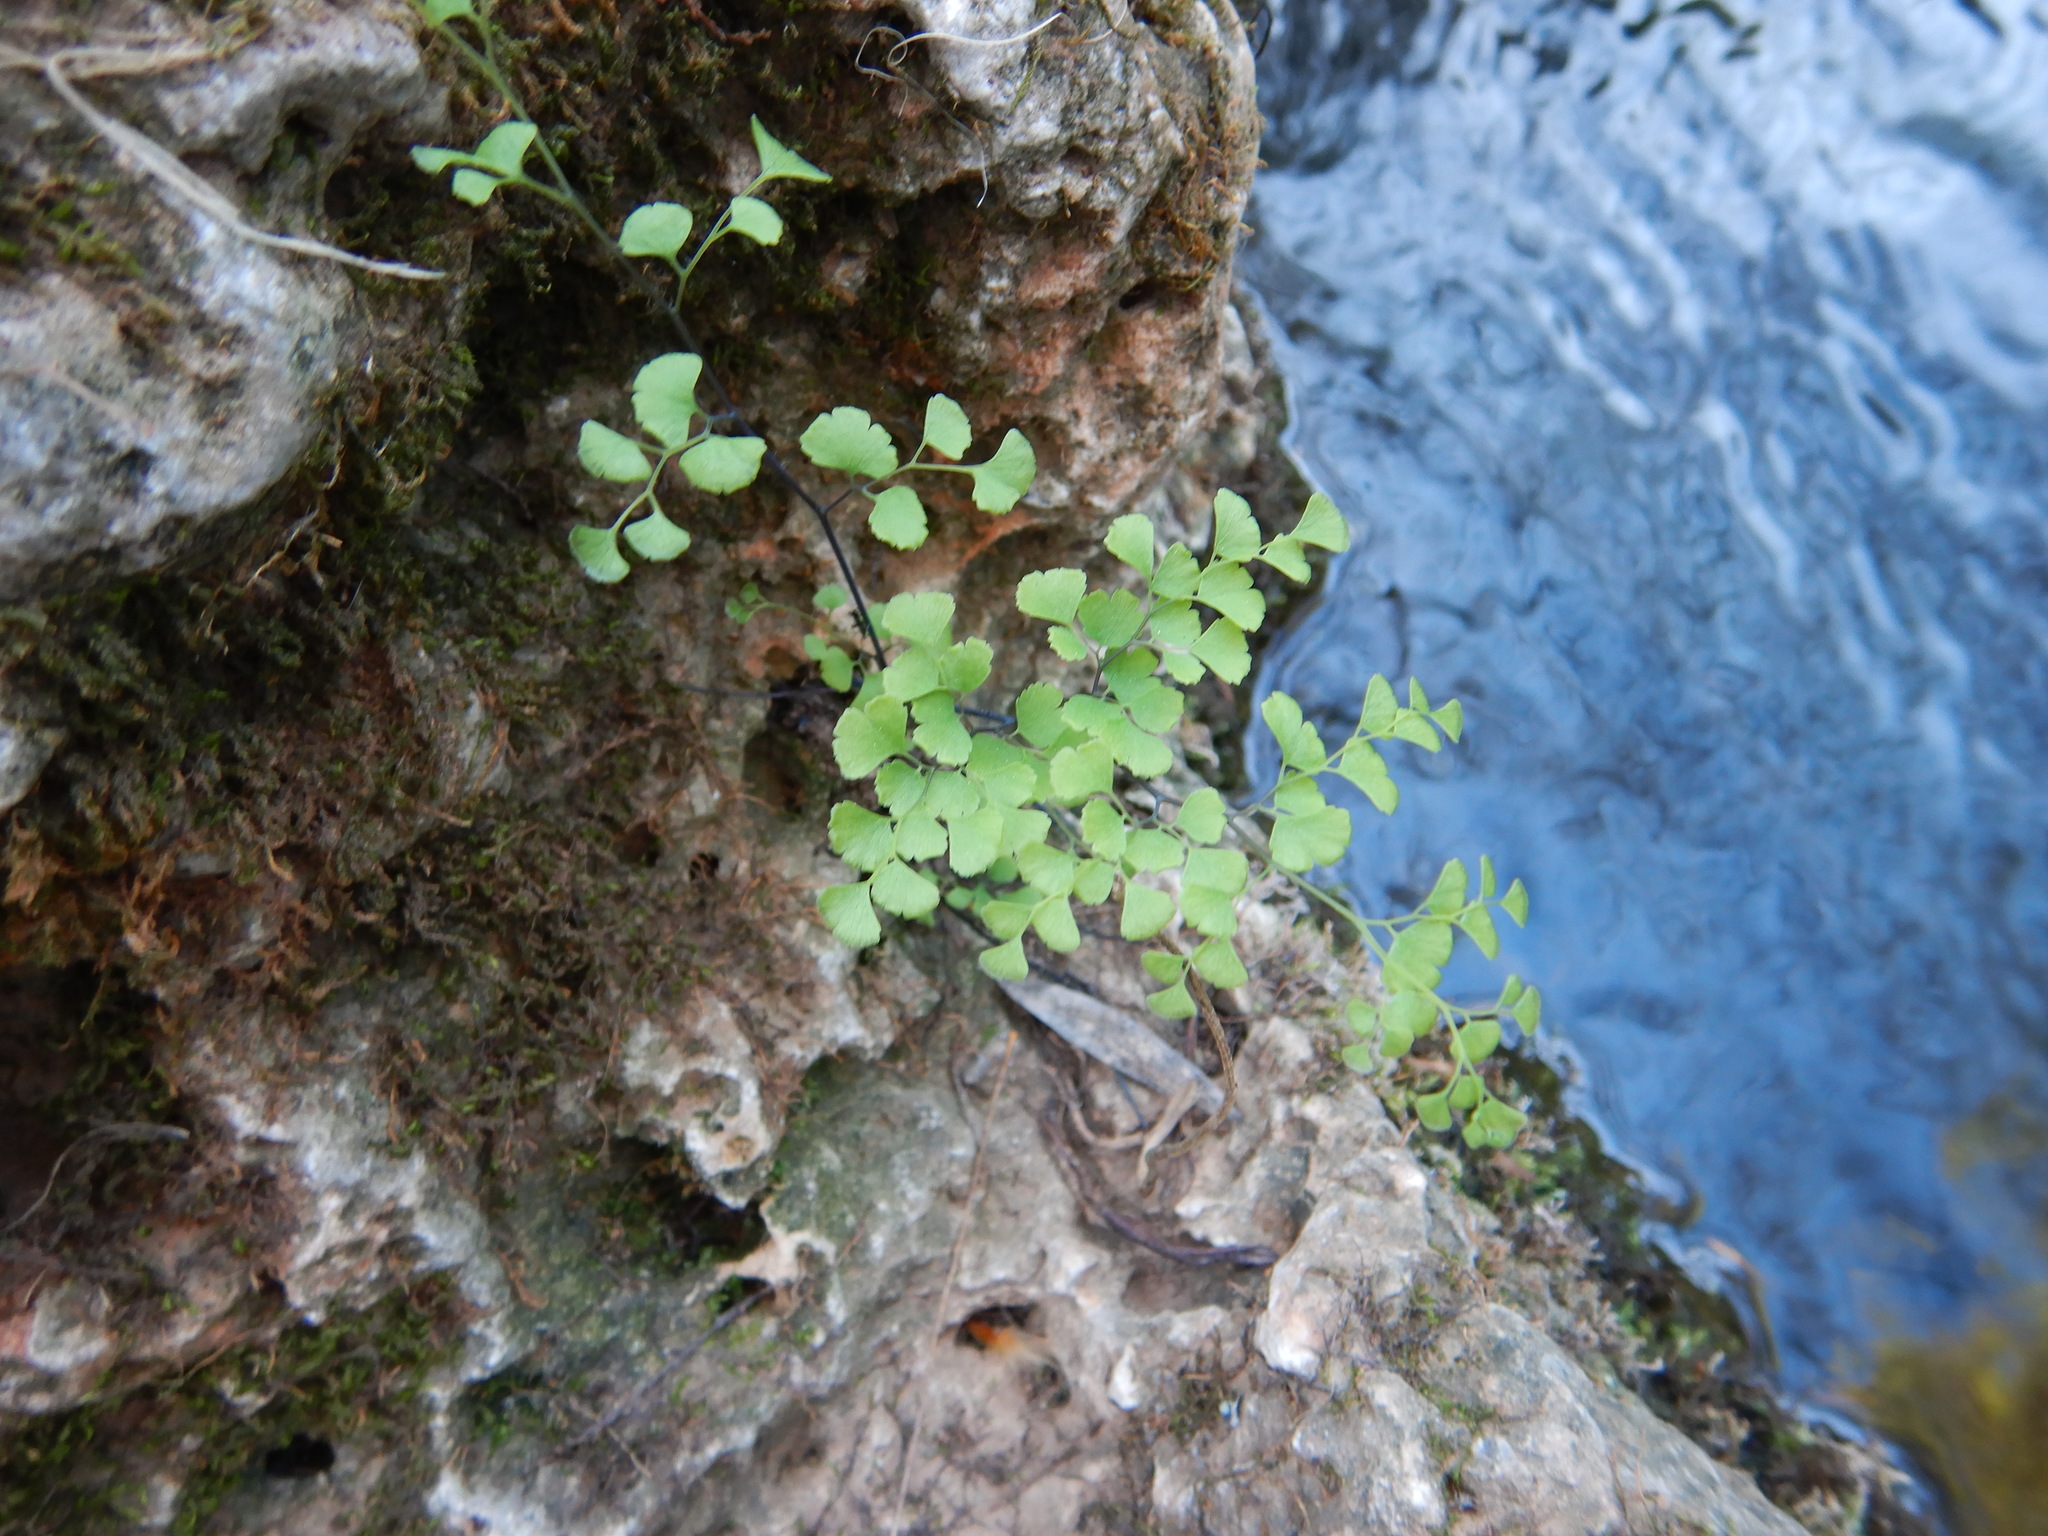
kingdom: Plantae
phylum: Tracheophyta
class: Polypodiopsida
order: Polypodiales
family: Pteridaceae
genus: Adiantum
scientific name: Adiantum capillus-veneris
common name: Maidenhair fern
